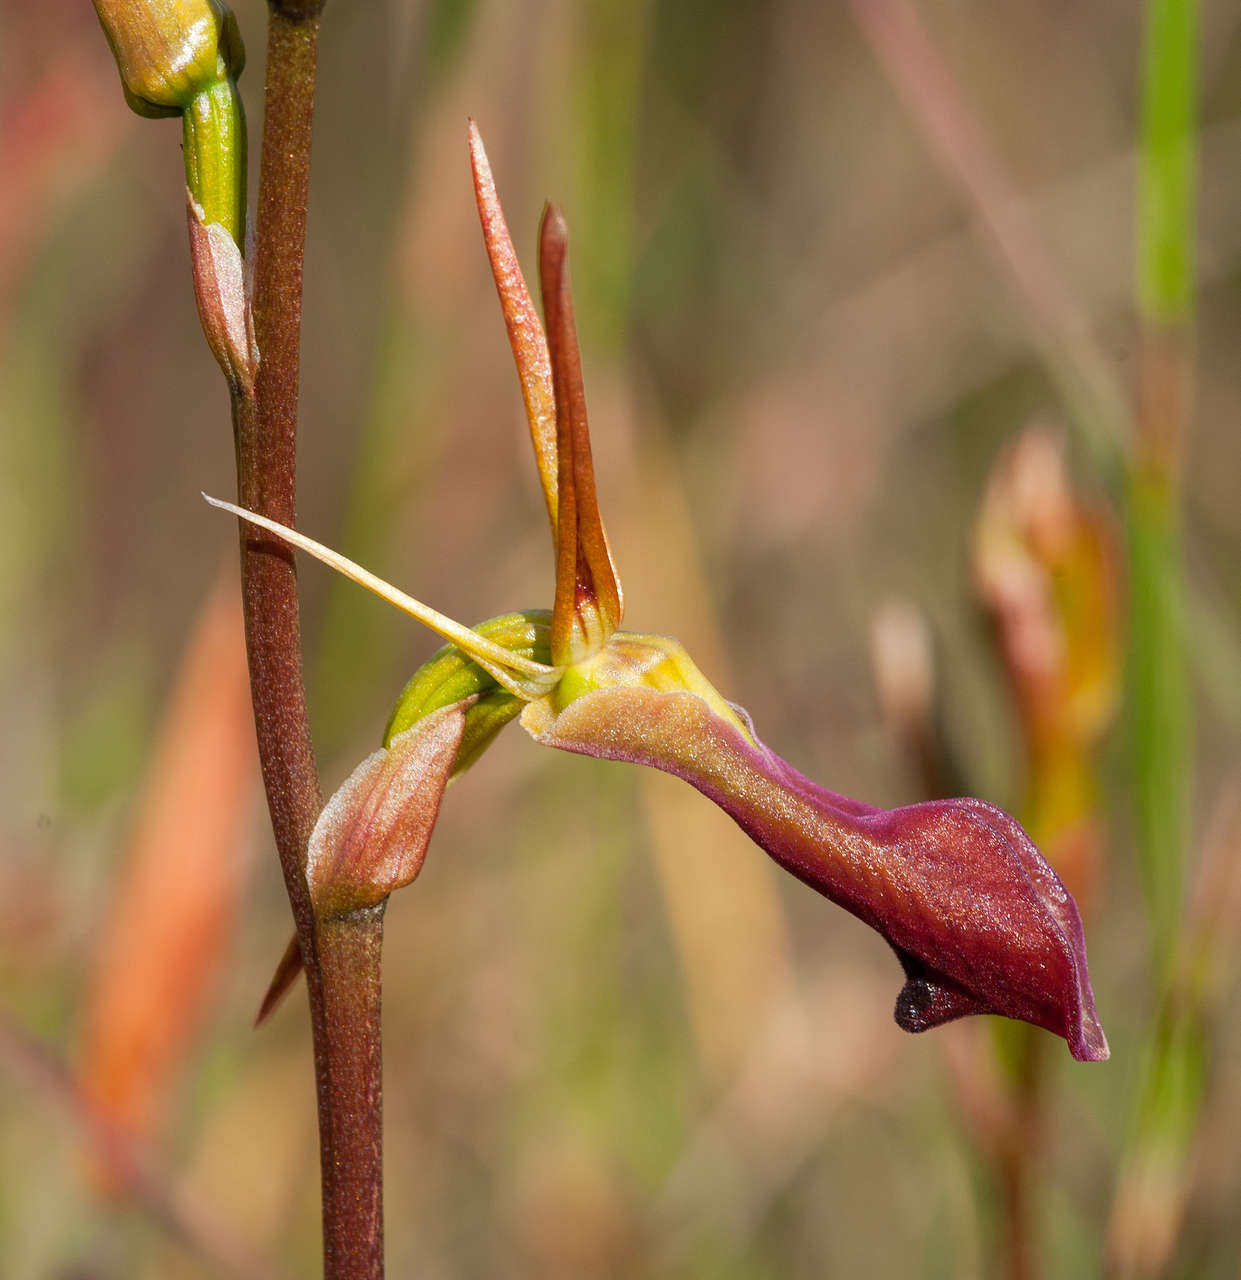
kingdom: Plantae
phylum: Tracheophyta
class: Liliopsida
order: Asparagales
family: Orchidaceae
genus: Cryptostylis
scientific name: Cryptostylis subulata
